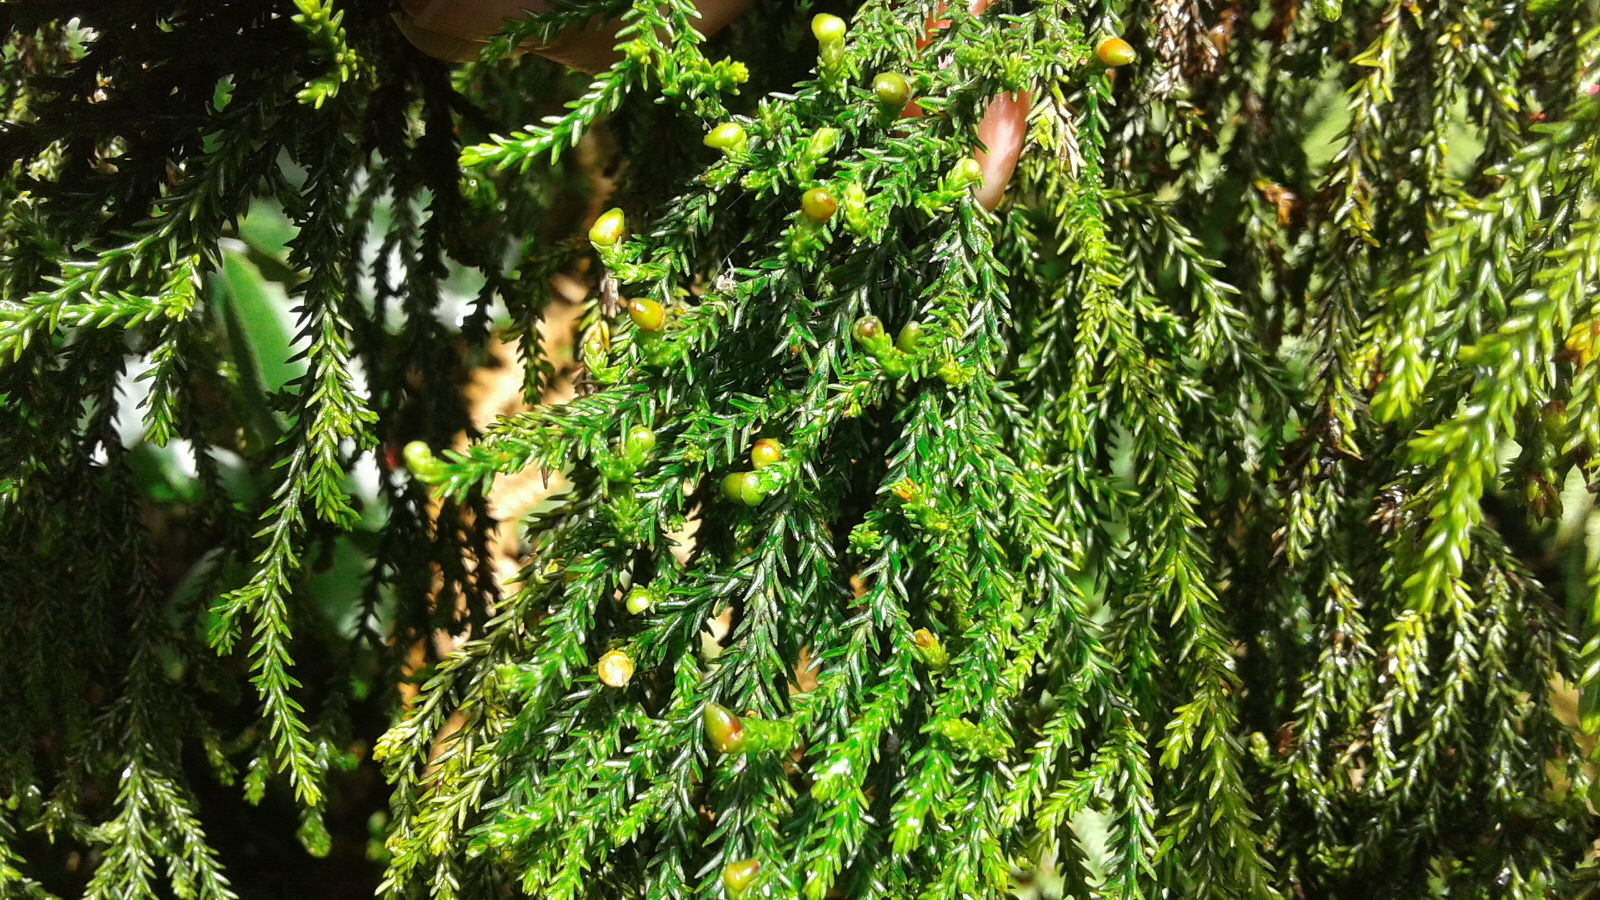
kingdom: Plantae
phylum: Tracheophyta
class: Pinopsida
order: Pinales
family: Podocarpaceae
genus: Dacrydium
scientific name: Dacrydium cupressinum
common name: Red pine
